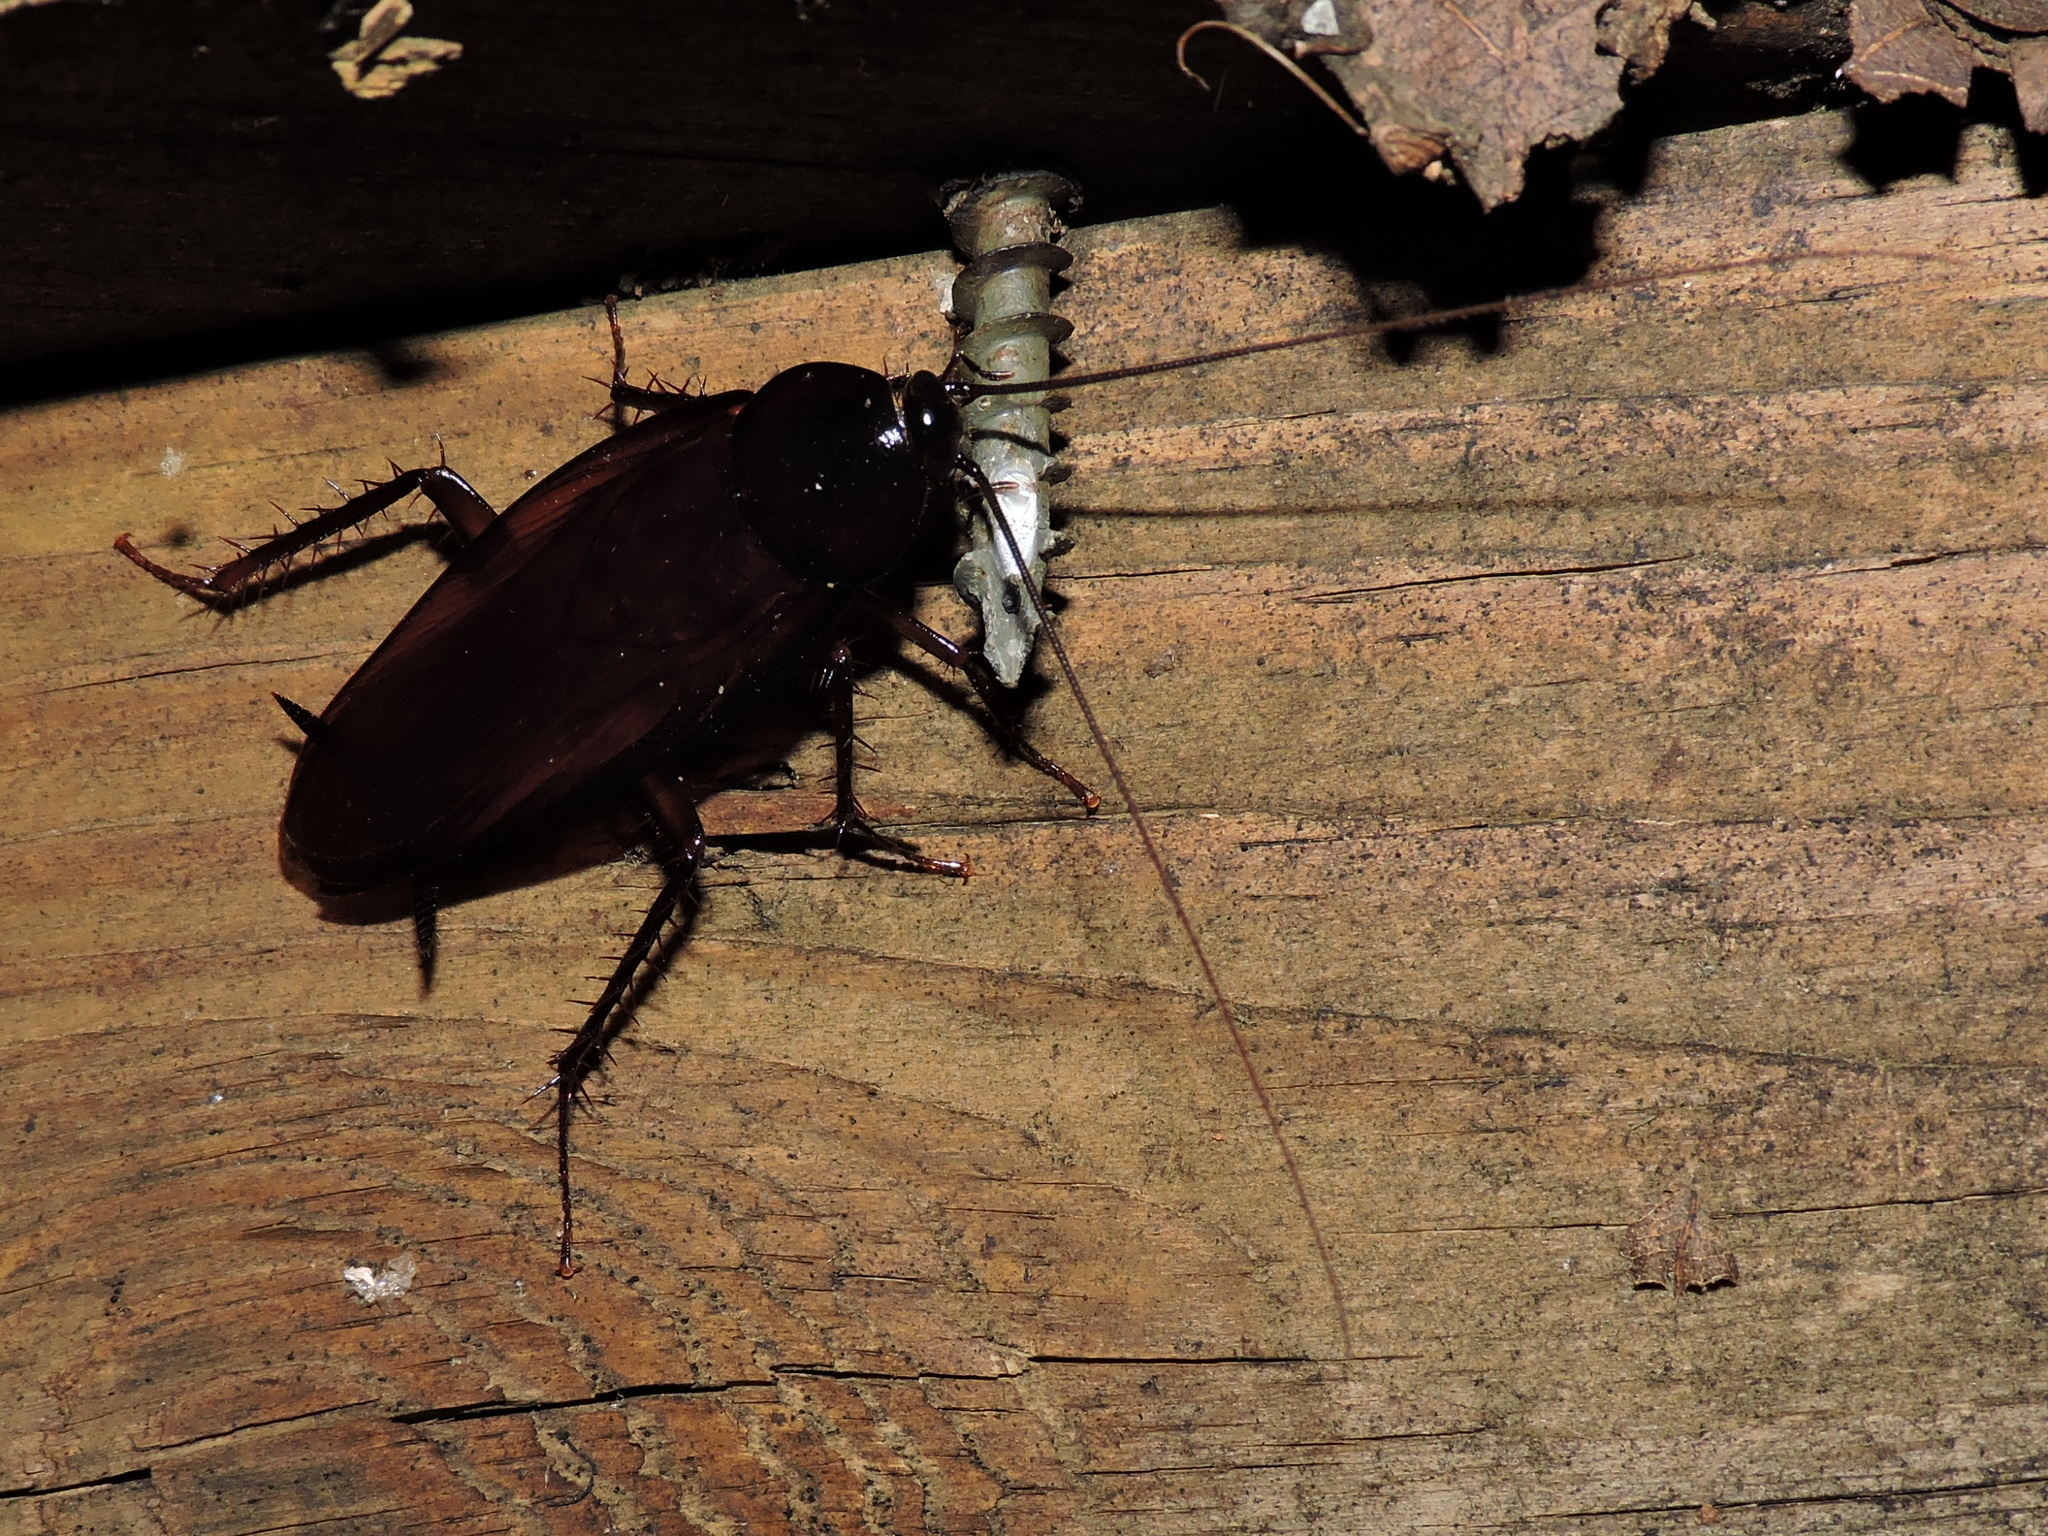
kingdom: Animalia
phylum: Arthropoda
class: Insecta
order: Blattodea
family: Blattidae
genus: Periplaneta
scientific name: Periplaneta fuliginosa
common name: Smokeybrown cockroad
